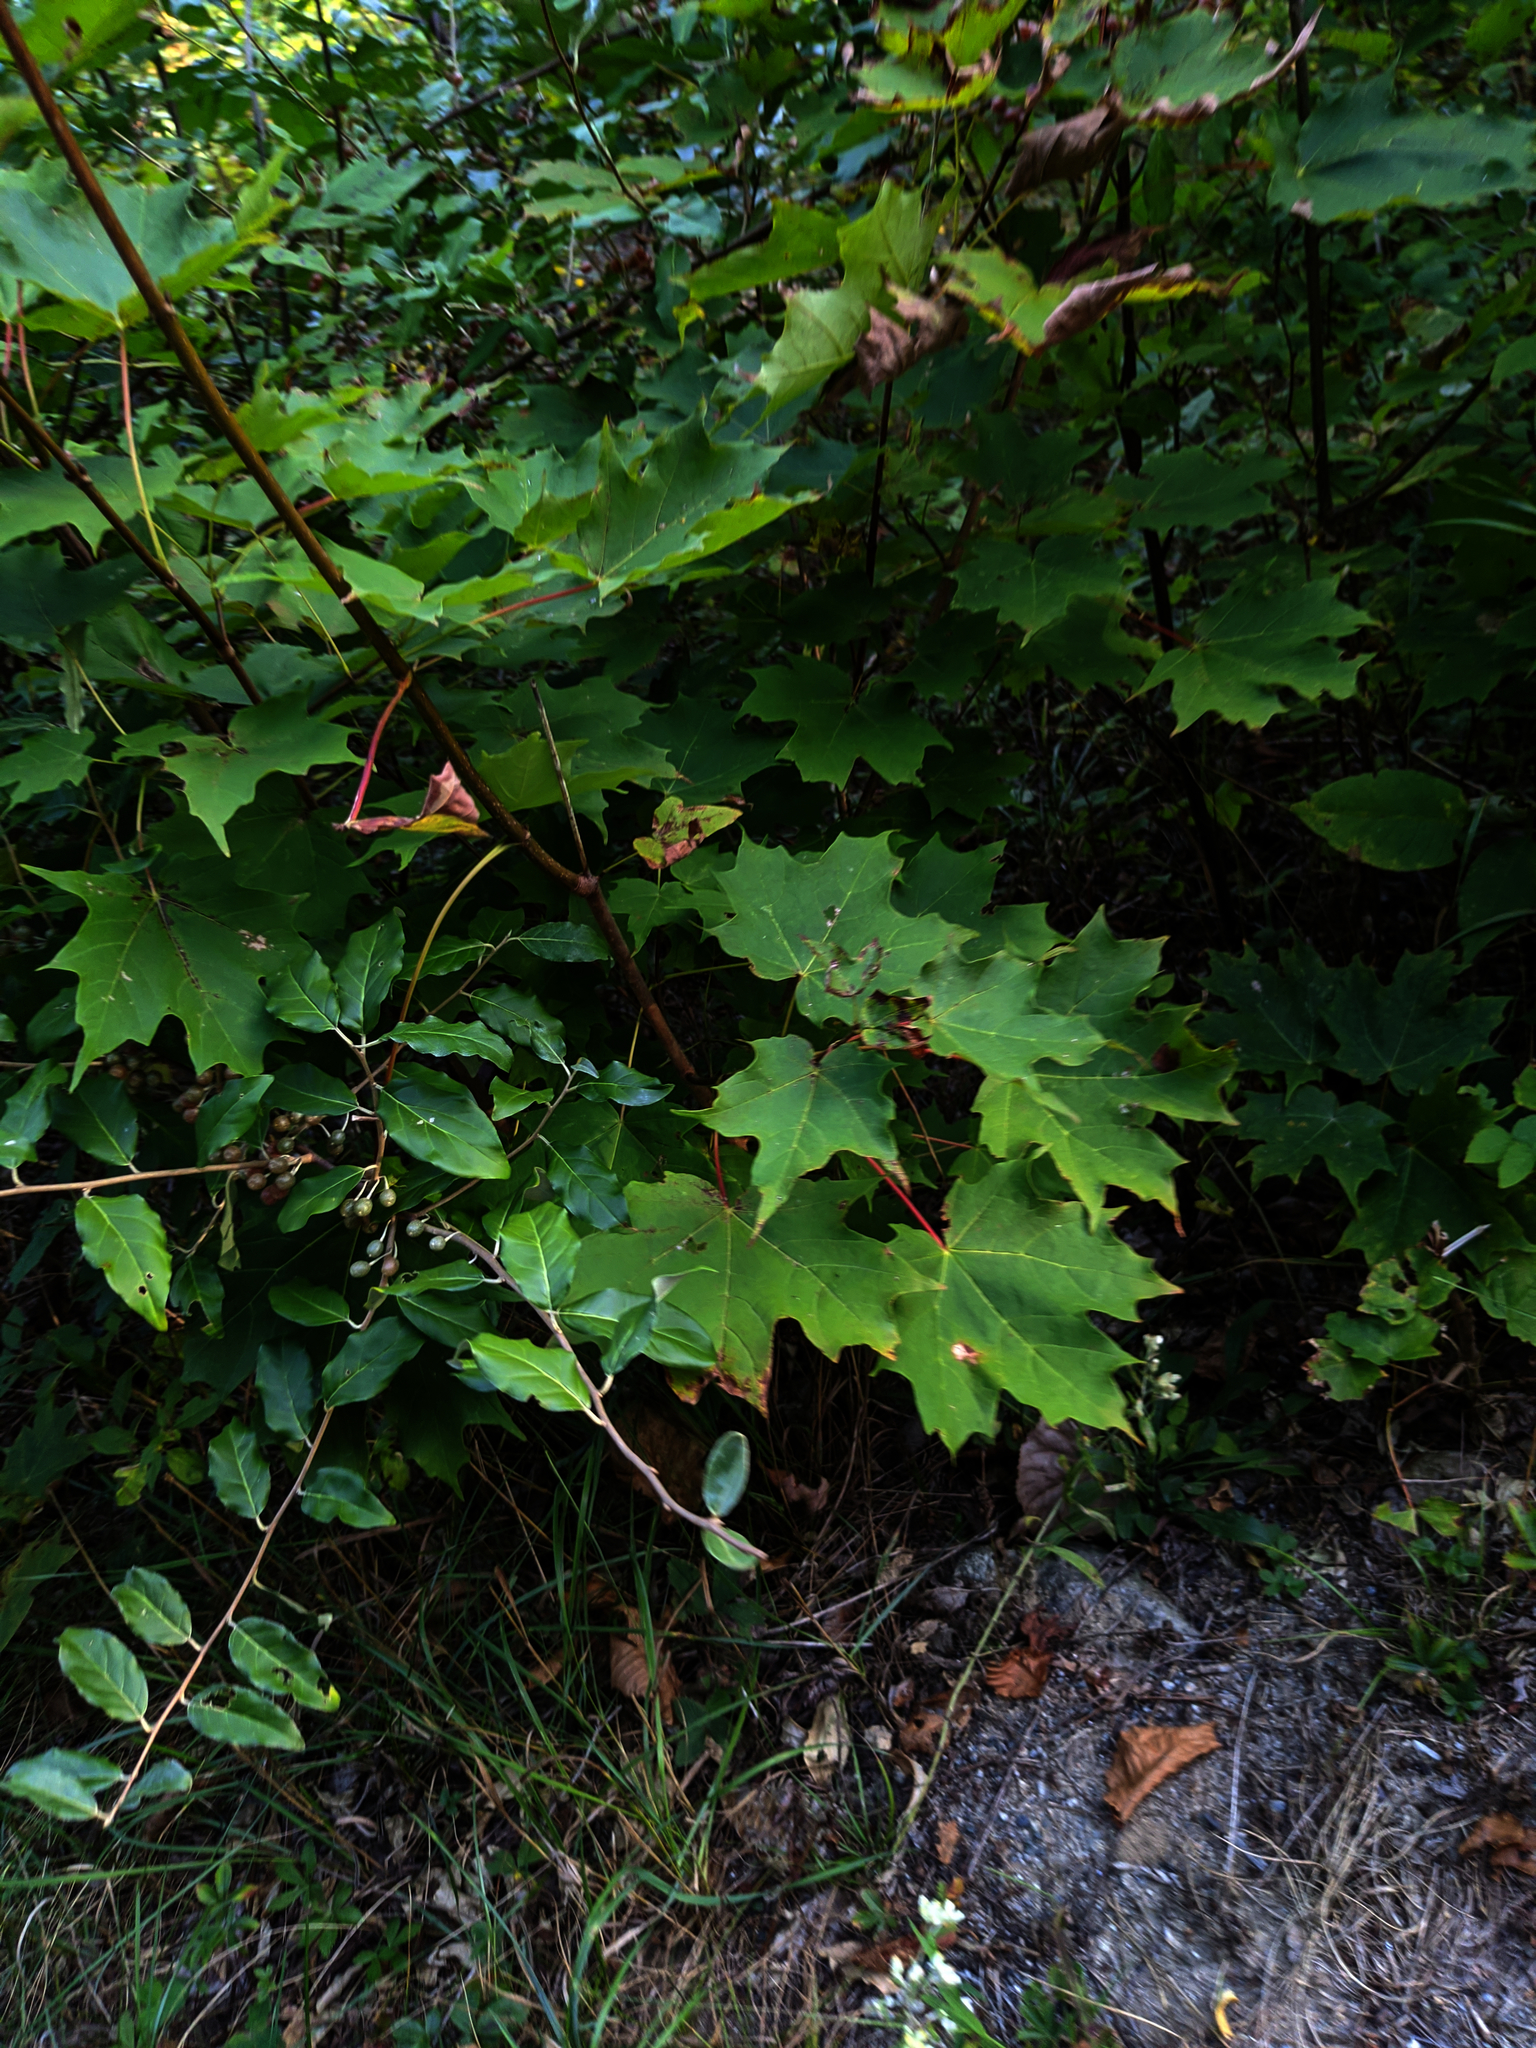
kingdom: Plantae
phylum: Tracheophyta
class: Magnoliopsida
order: Sapindales
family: Sapindaceae
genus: Acer
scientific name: Acer saccharum
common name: Sugar maple
